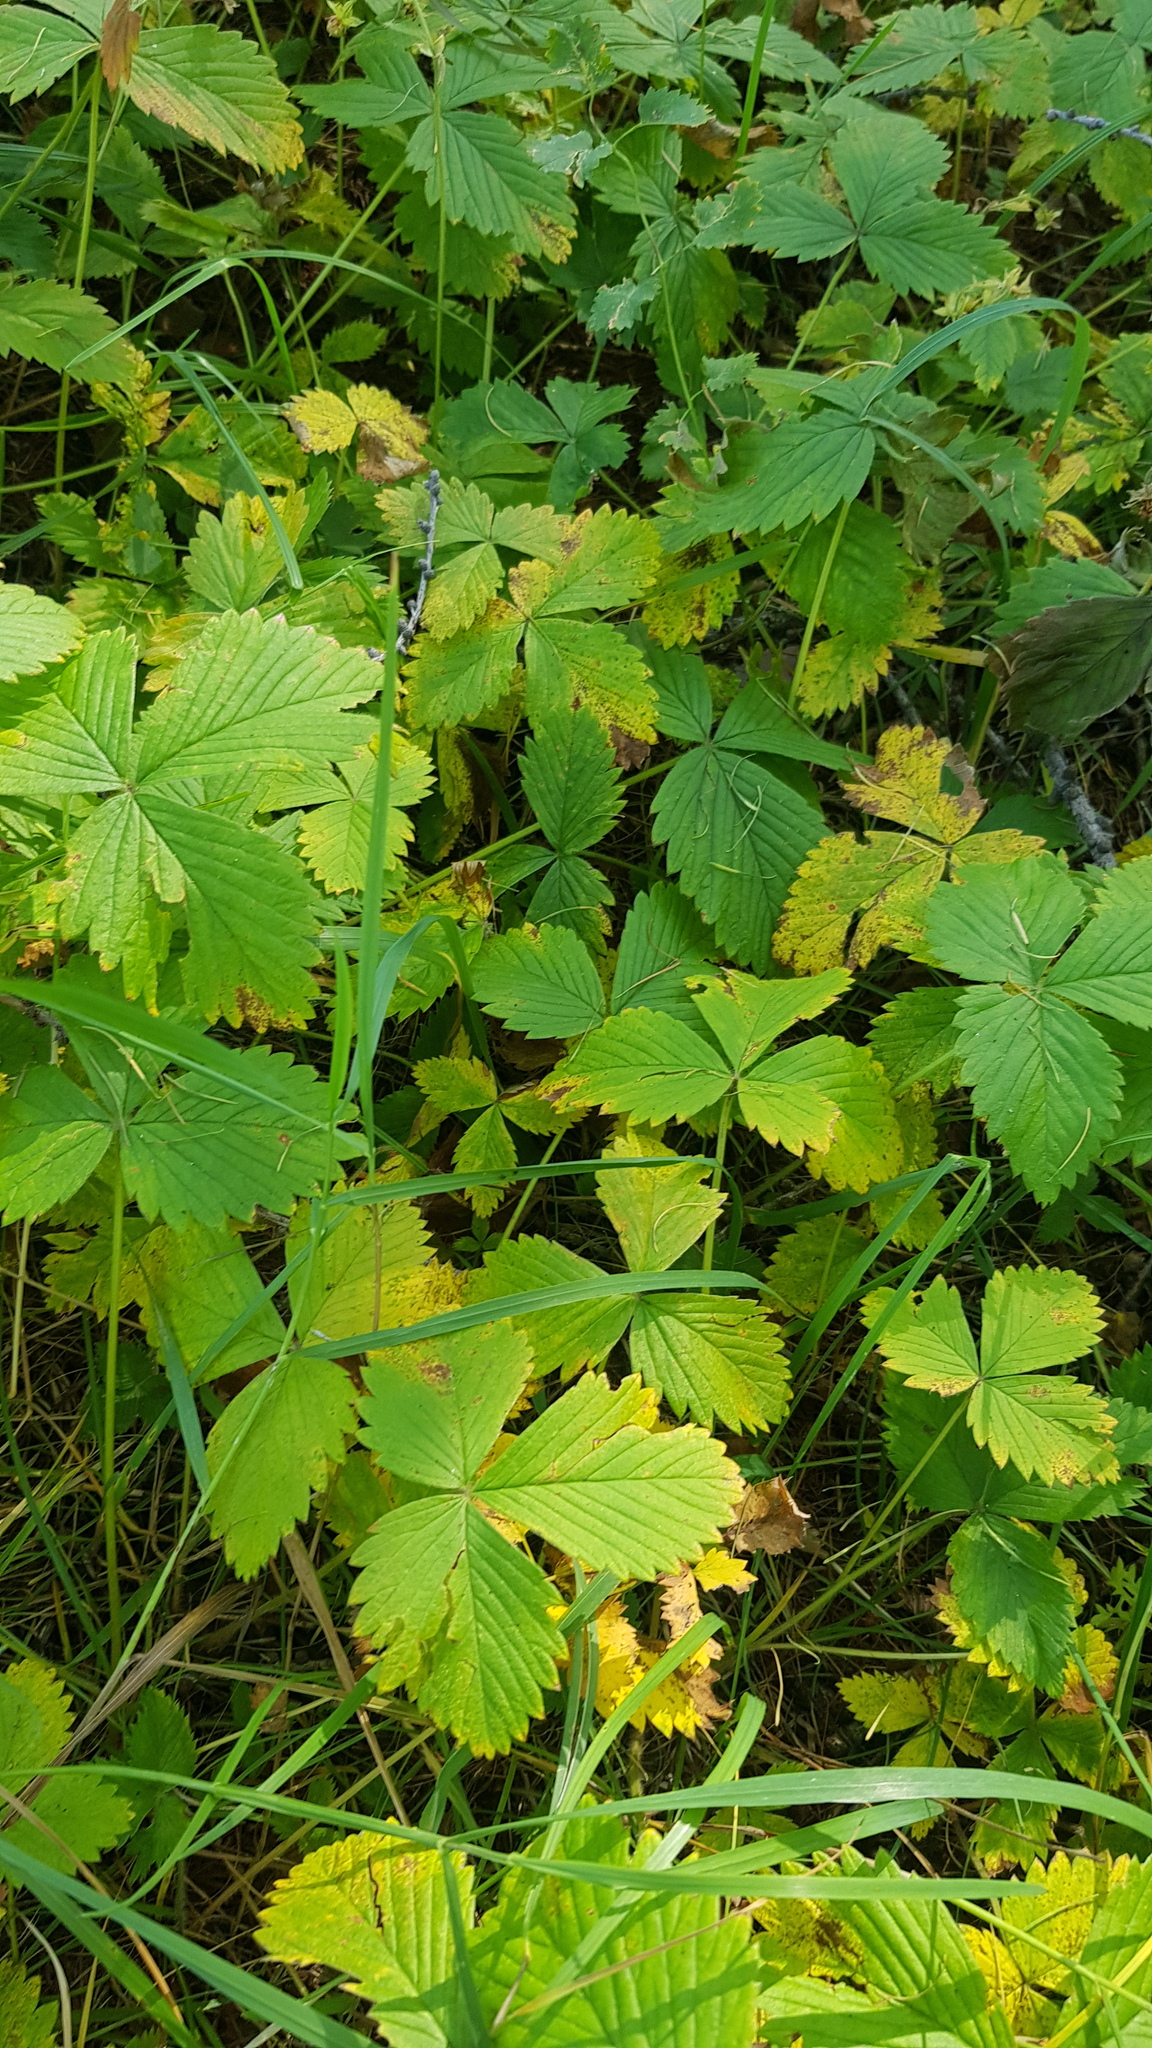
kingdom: Plantae
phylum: Tracheophyta
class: Magnoliopsida
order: Rosales
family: Rosaceae
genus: Fragaria
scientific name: Fragaria orientalis
